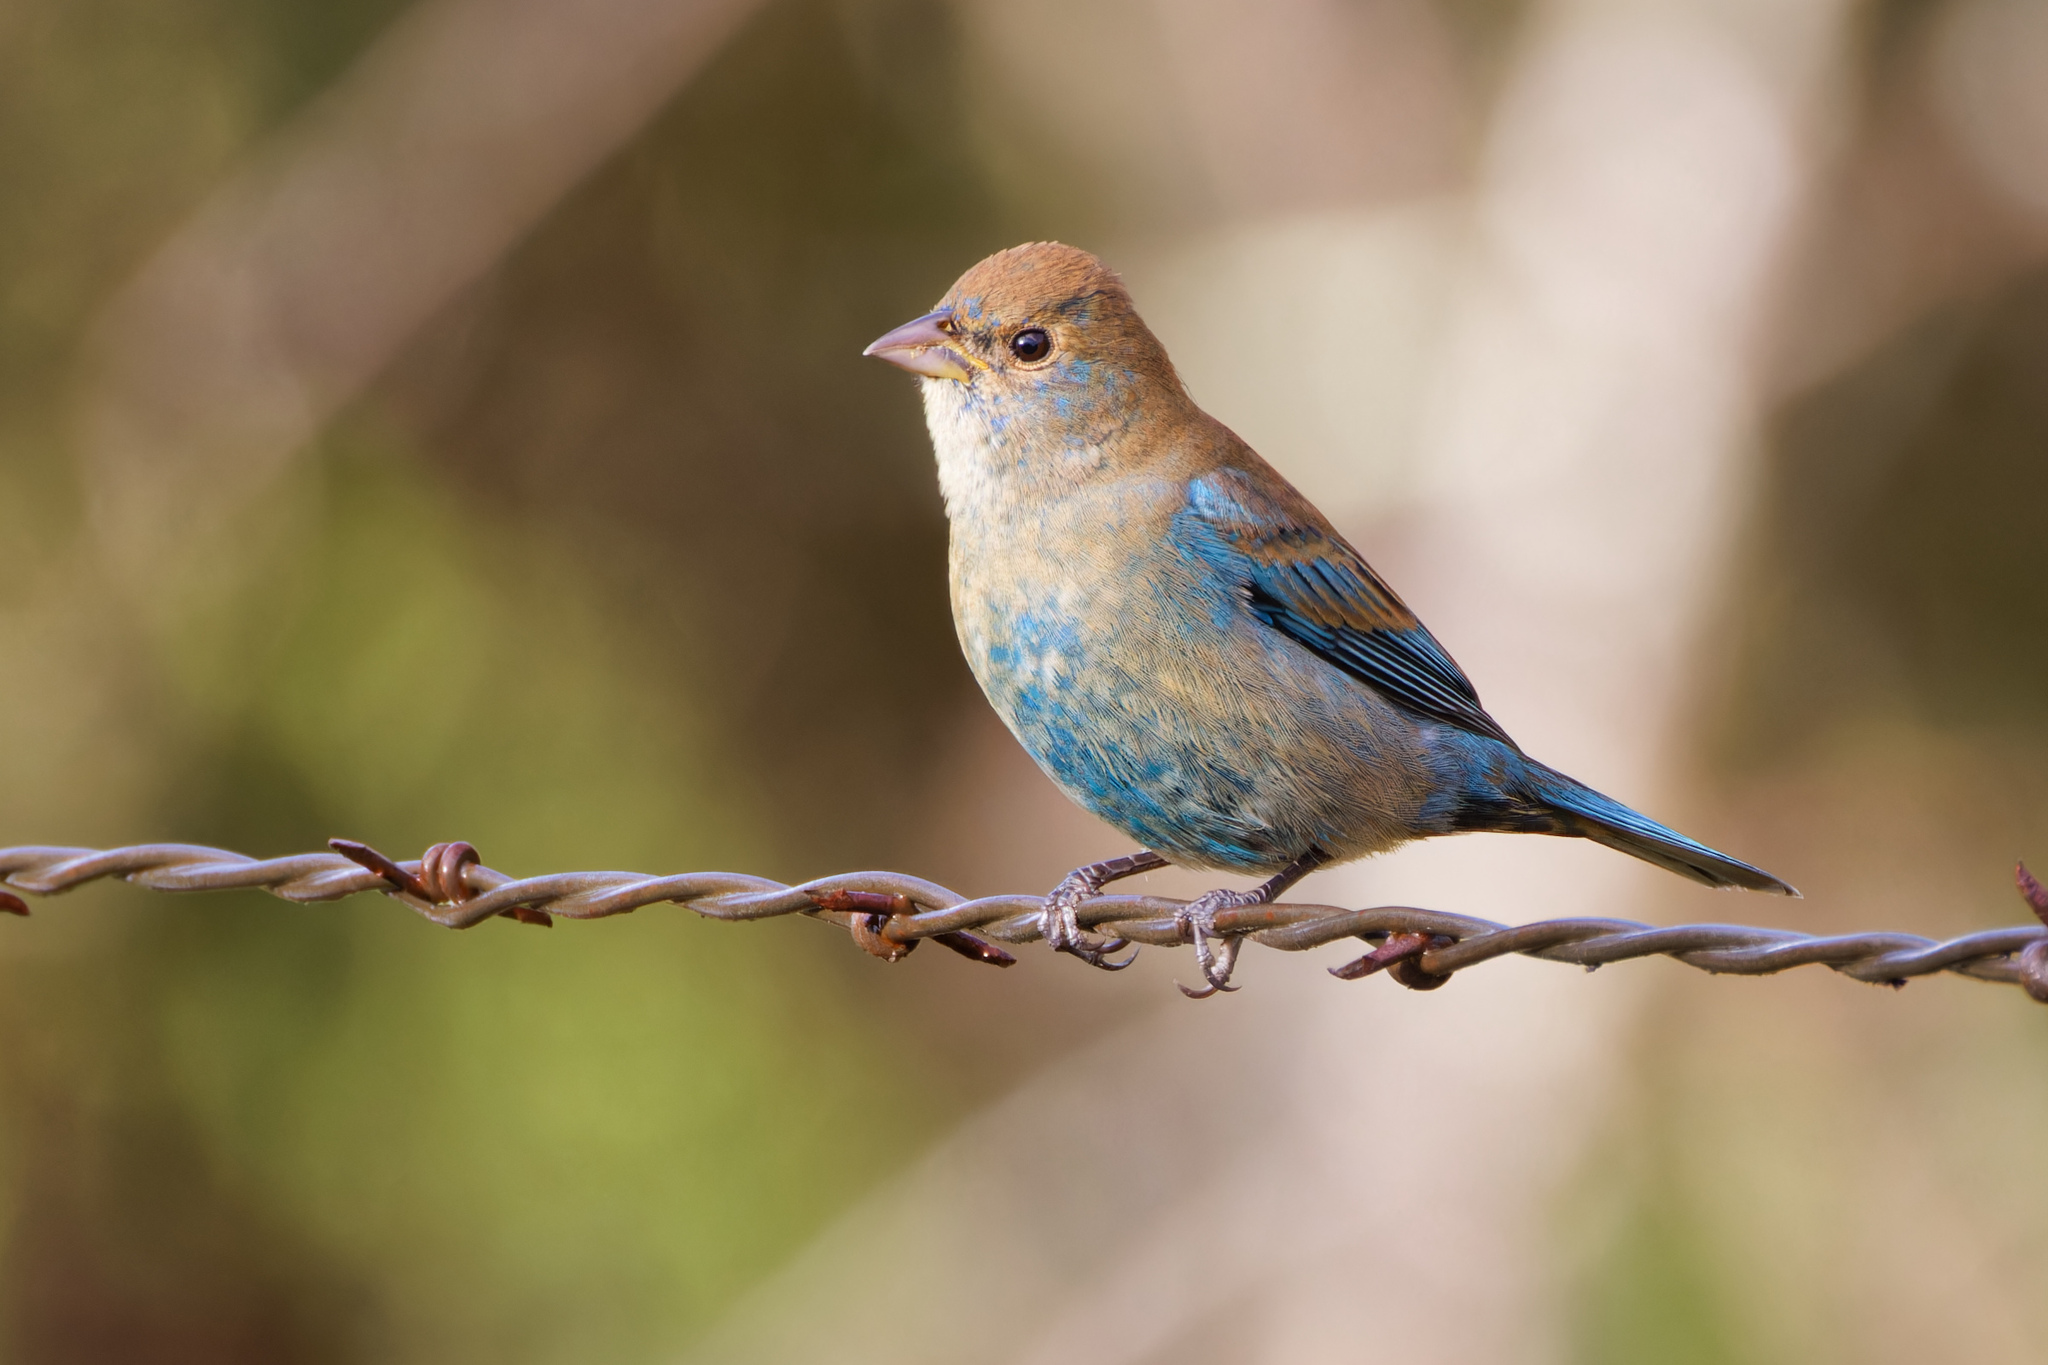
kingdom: Animalia
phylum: Chordata
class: Aves
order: Passeriformes
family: Cardinalidae
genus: Passerina
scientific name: Passerina cyanea
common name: Indigo bunting
